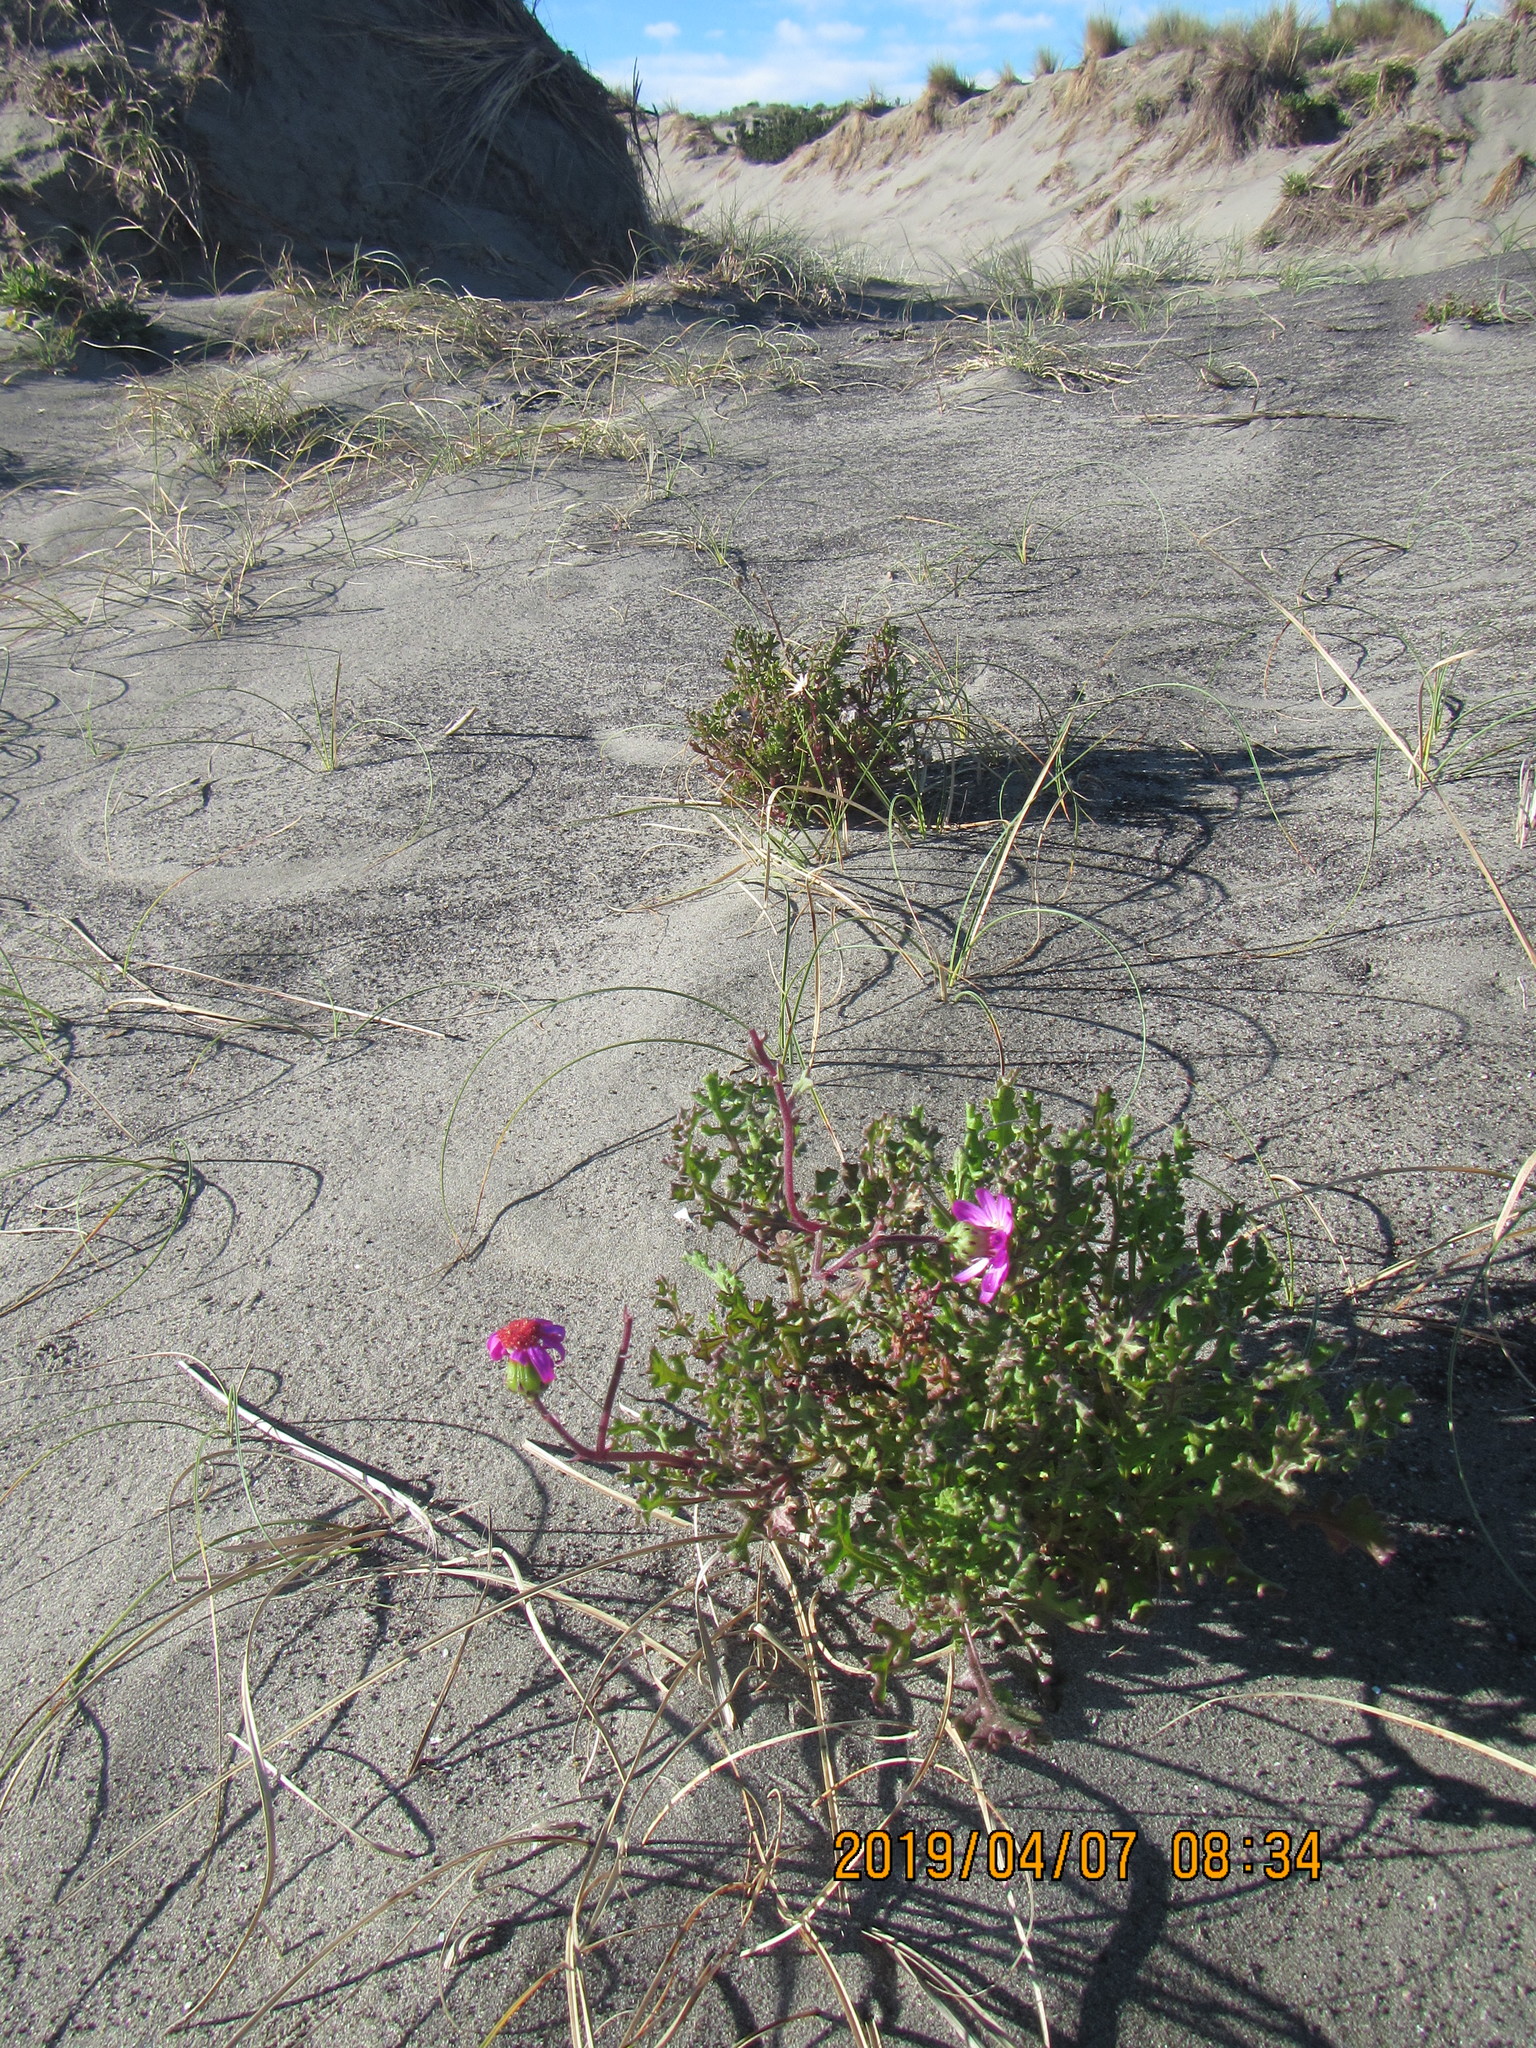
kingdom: Plantae
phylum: Tracheophyta
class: Magnoliopsida
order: Asterales
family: Asteraceae
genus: Senecio
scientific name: Senecio elegans
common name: Purple groundsel
